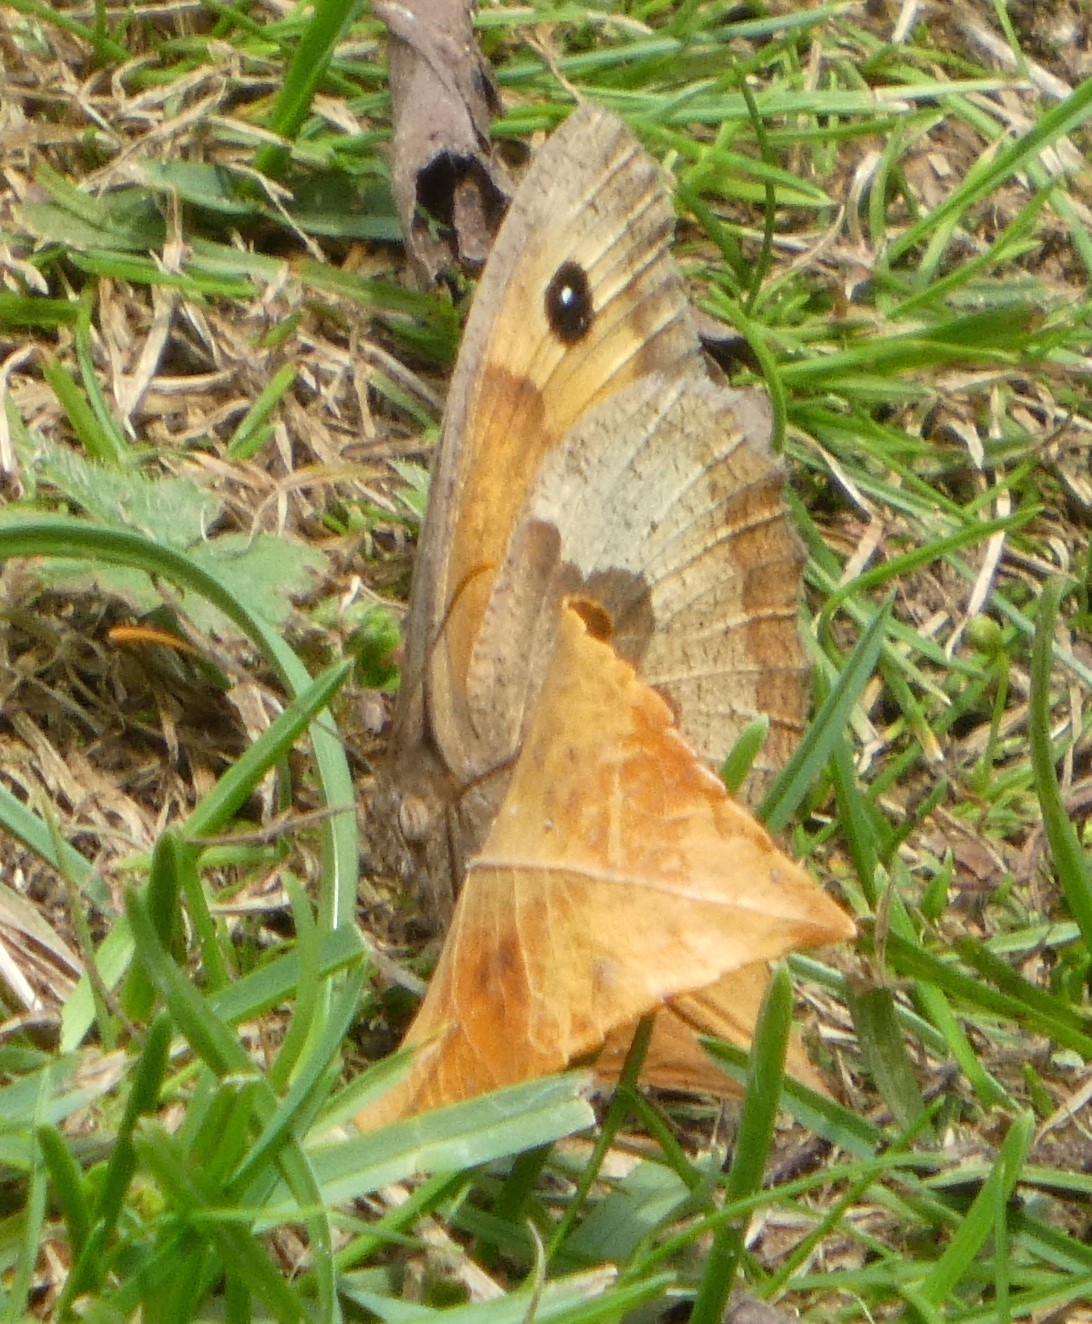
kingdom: Animalia
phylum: Arthropoda
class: Insecta
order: Lepidoptera
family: Nymphalidae
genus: Maniola
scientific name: Maniola jurtina
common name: Meadow brown
